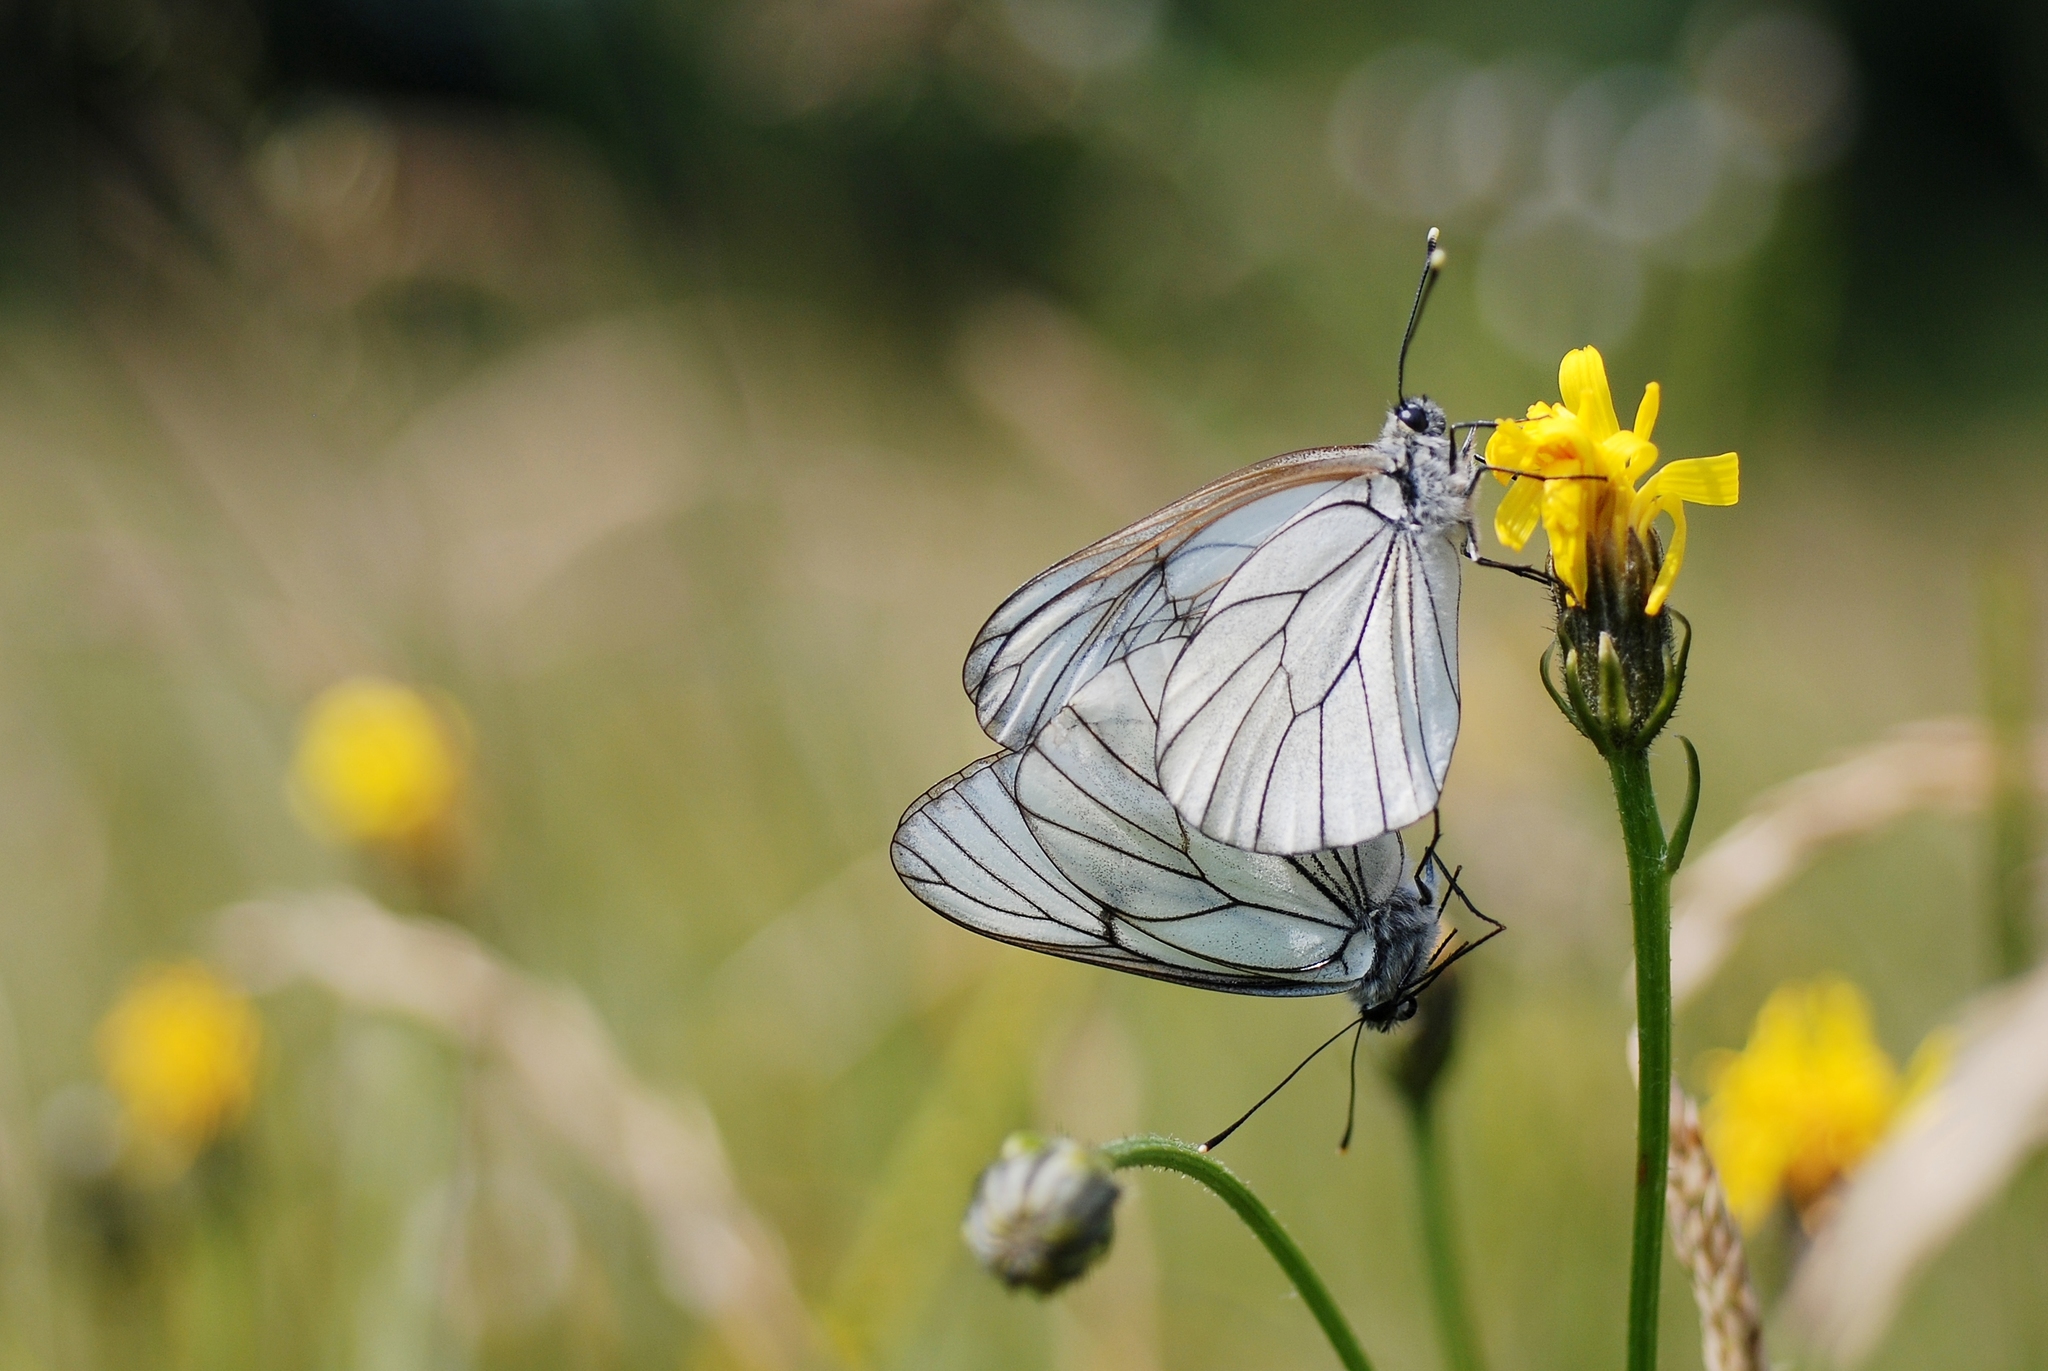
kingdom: Animalia
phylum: Arthropoda
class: Insecta
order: Lepidoptera
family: Pieridae
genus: Aporia
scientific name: Aporia crataegi
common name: Black-veined white
